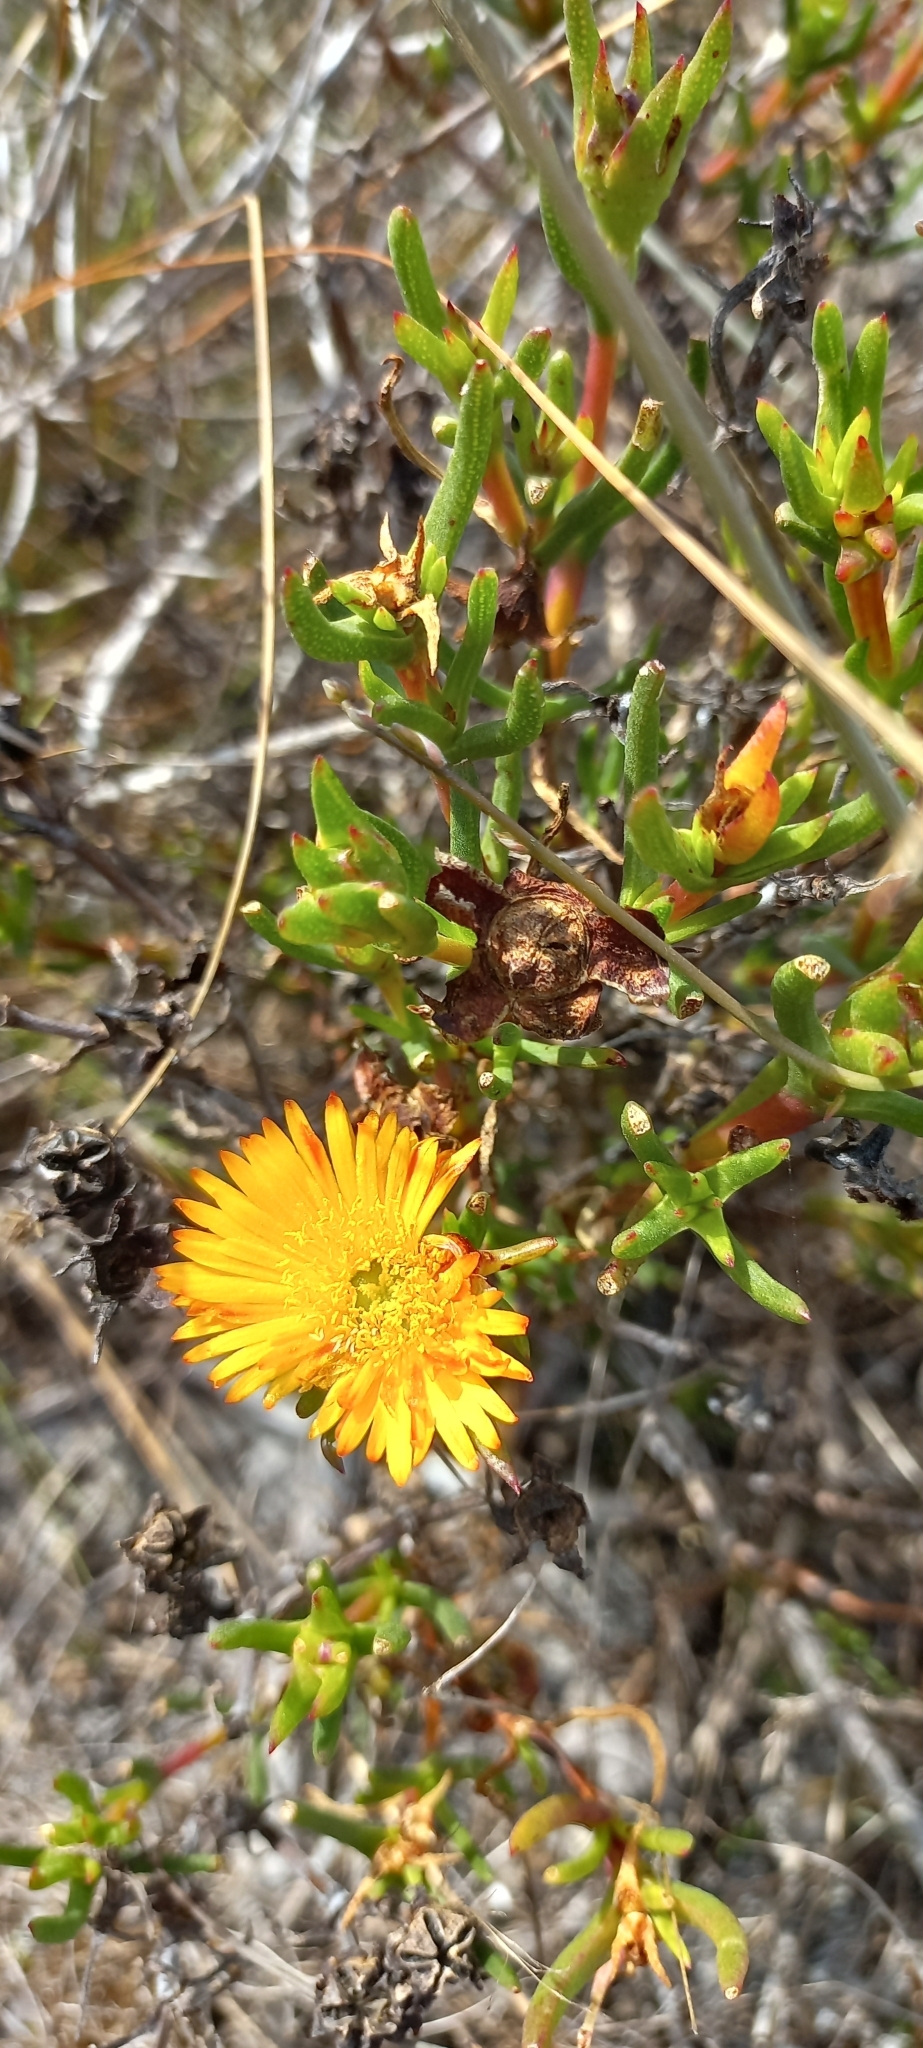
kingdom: Plantae
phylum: Tracheophyta
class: Magnoliopsida
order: Caryophyllales
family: Aizoaceae
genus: Lampranthus
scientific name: Lampranthus bicolor
